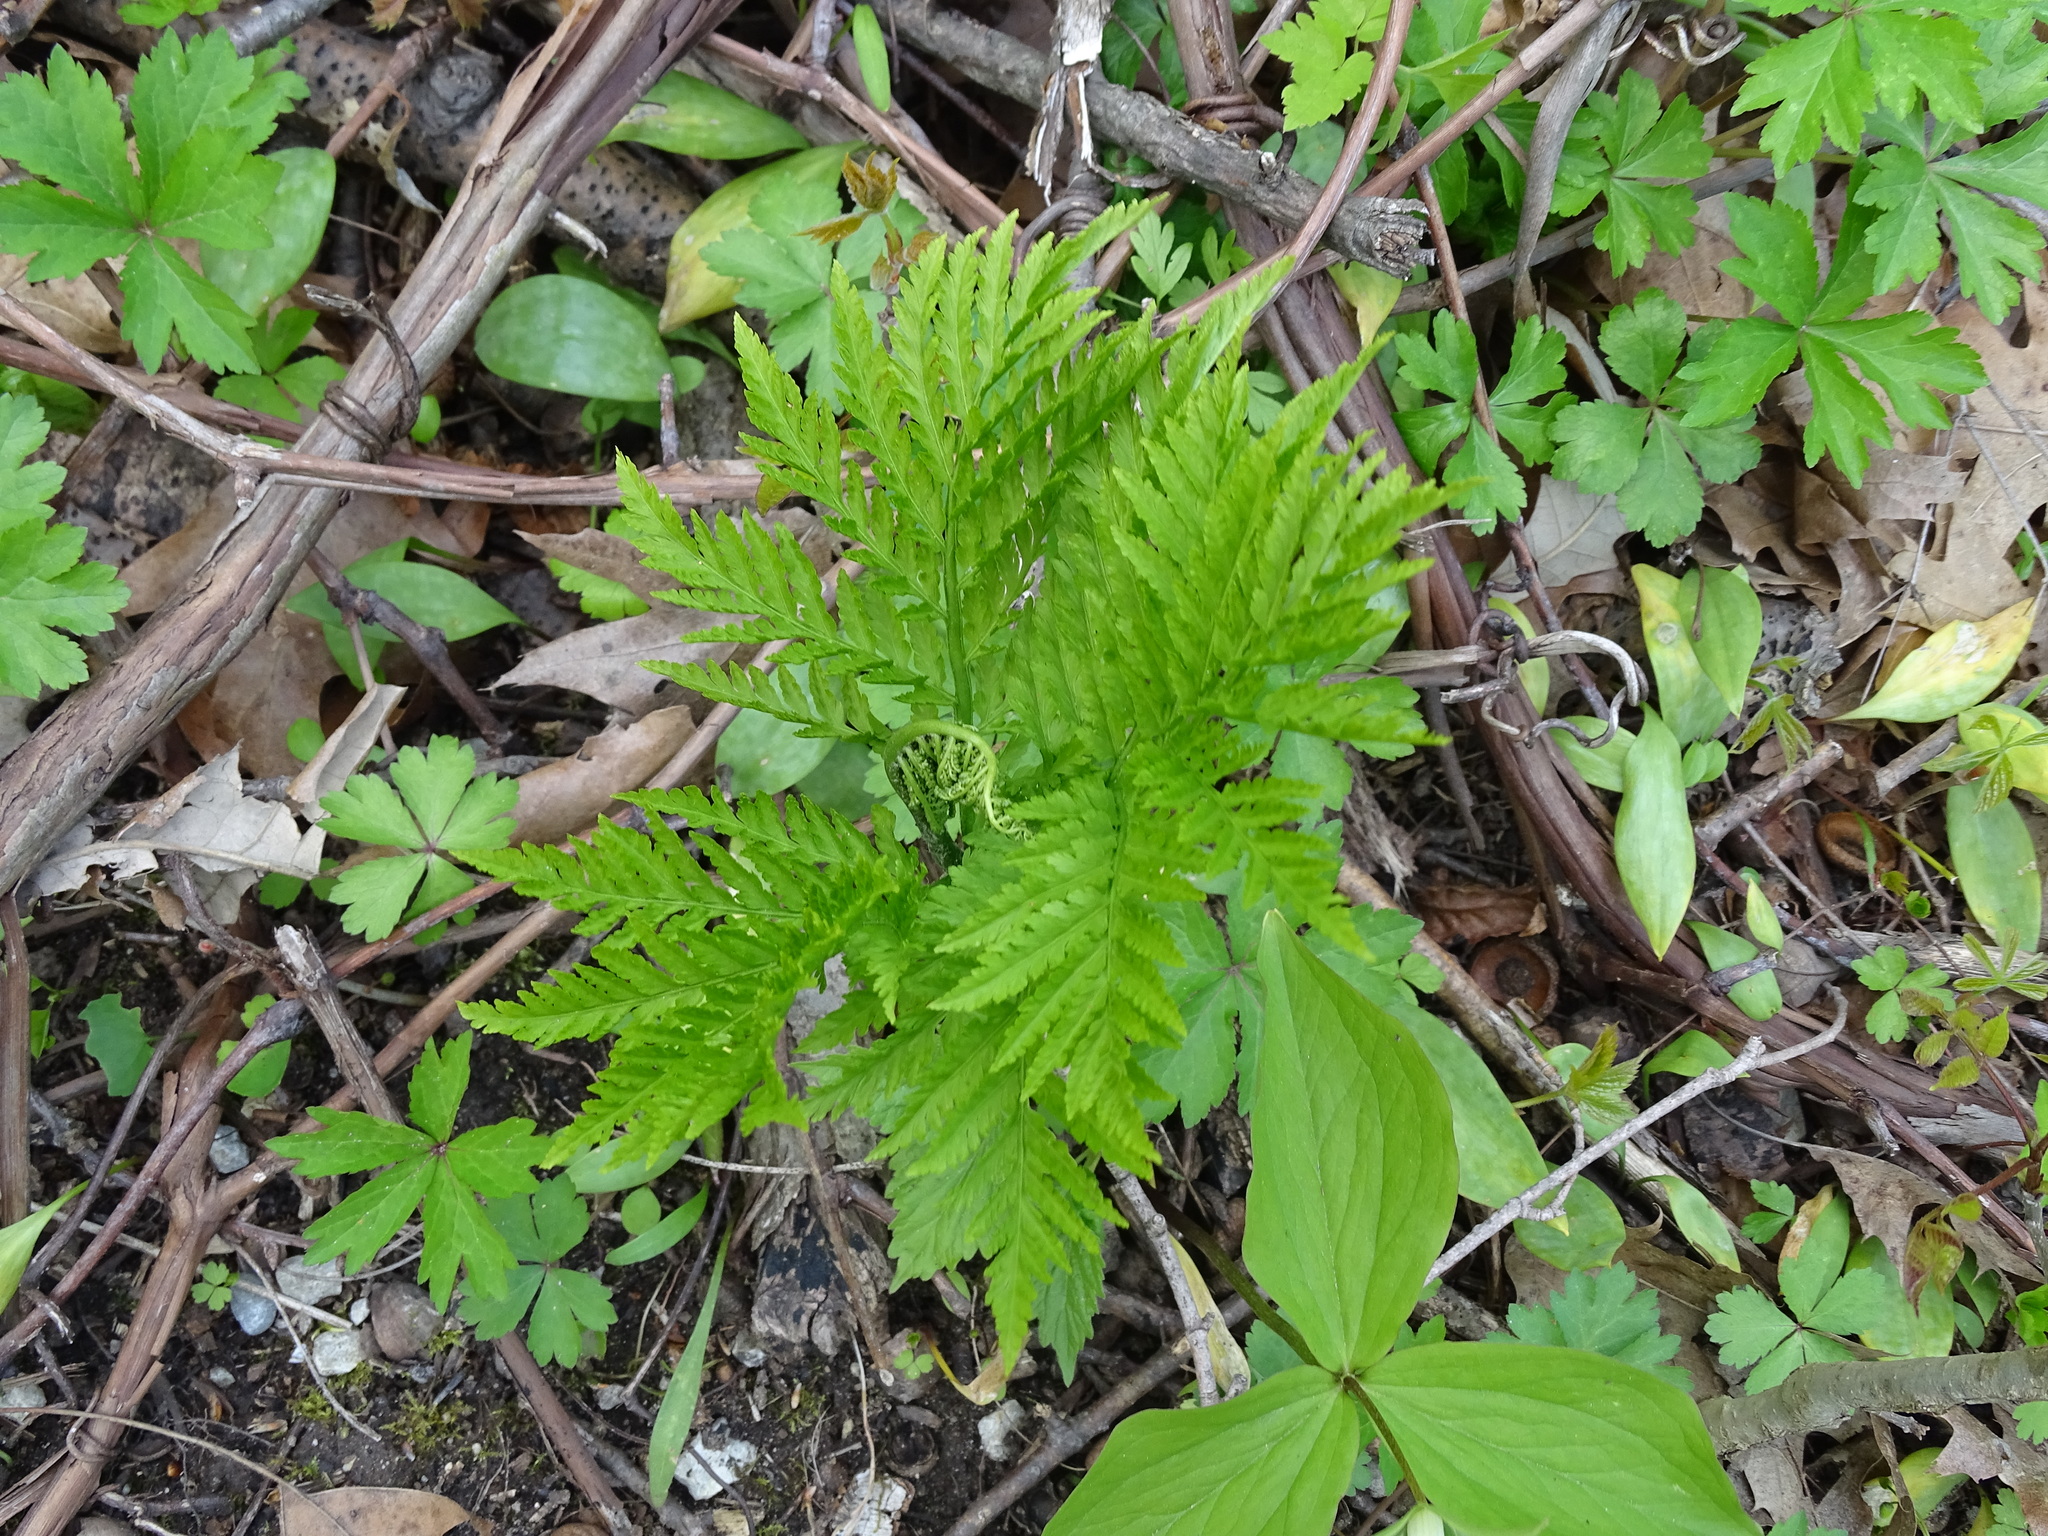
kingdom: Plantae
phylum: Tracheophyta
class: Polypodiopsida
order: Ophioglossales
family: Ophioglossaceae
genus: Botrypus
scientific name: Botrypus virginianus
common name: Common grapefern
